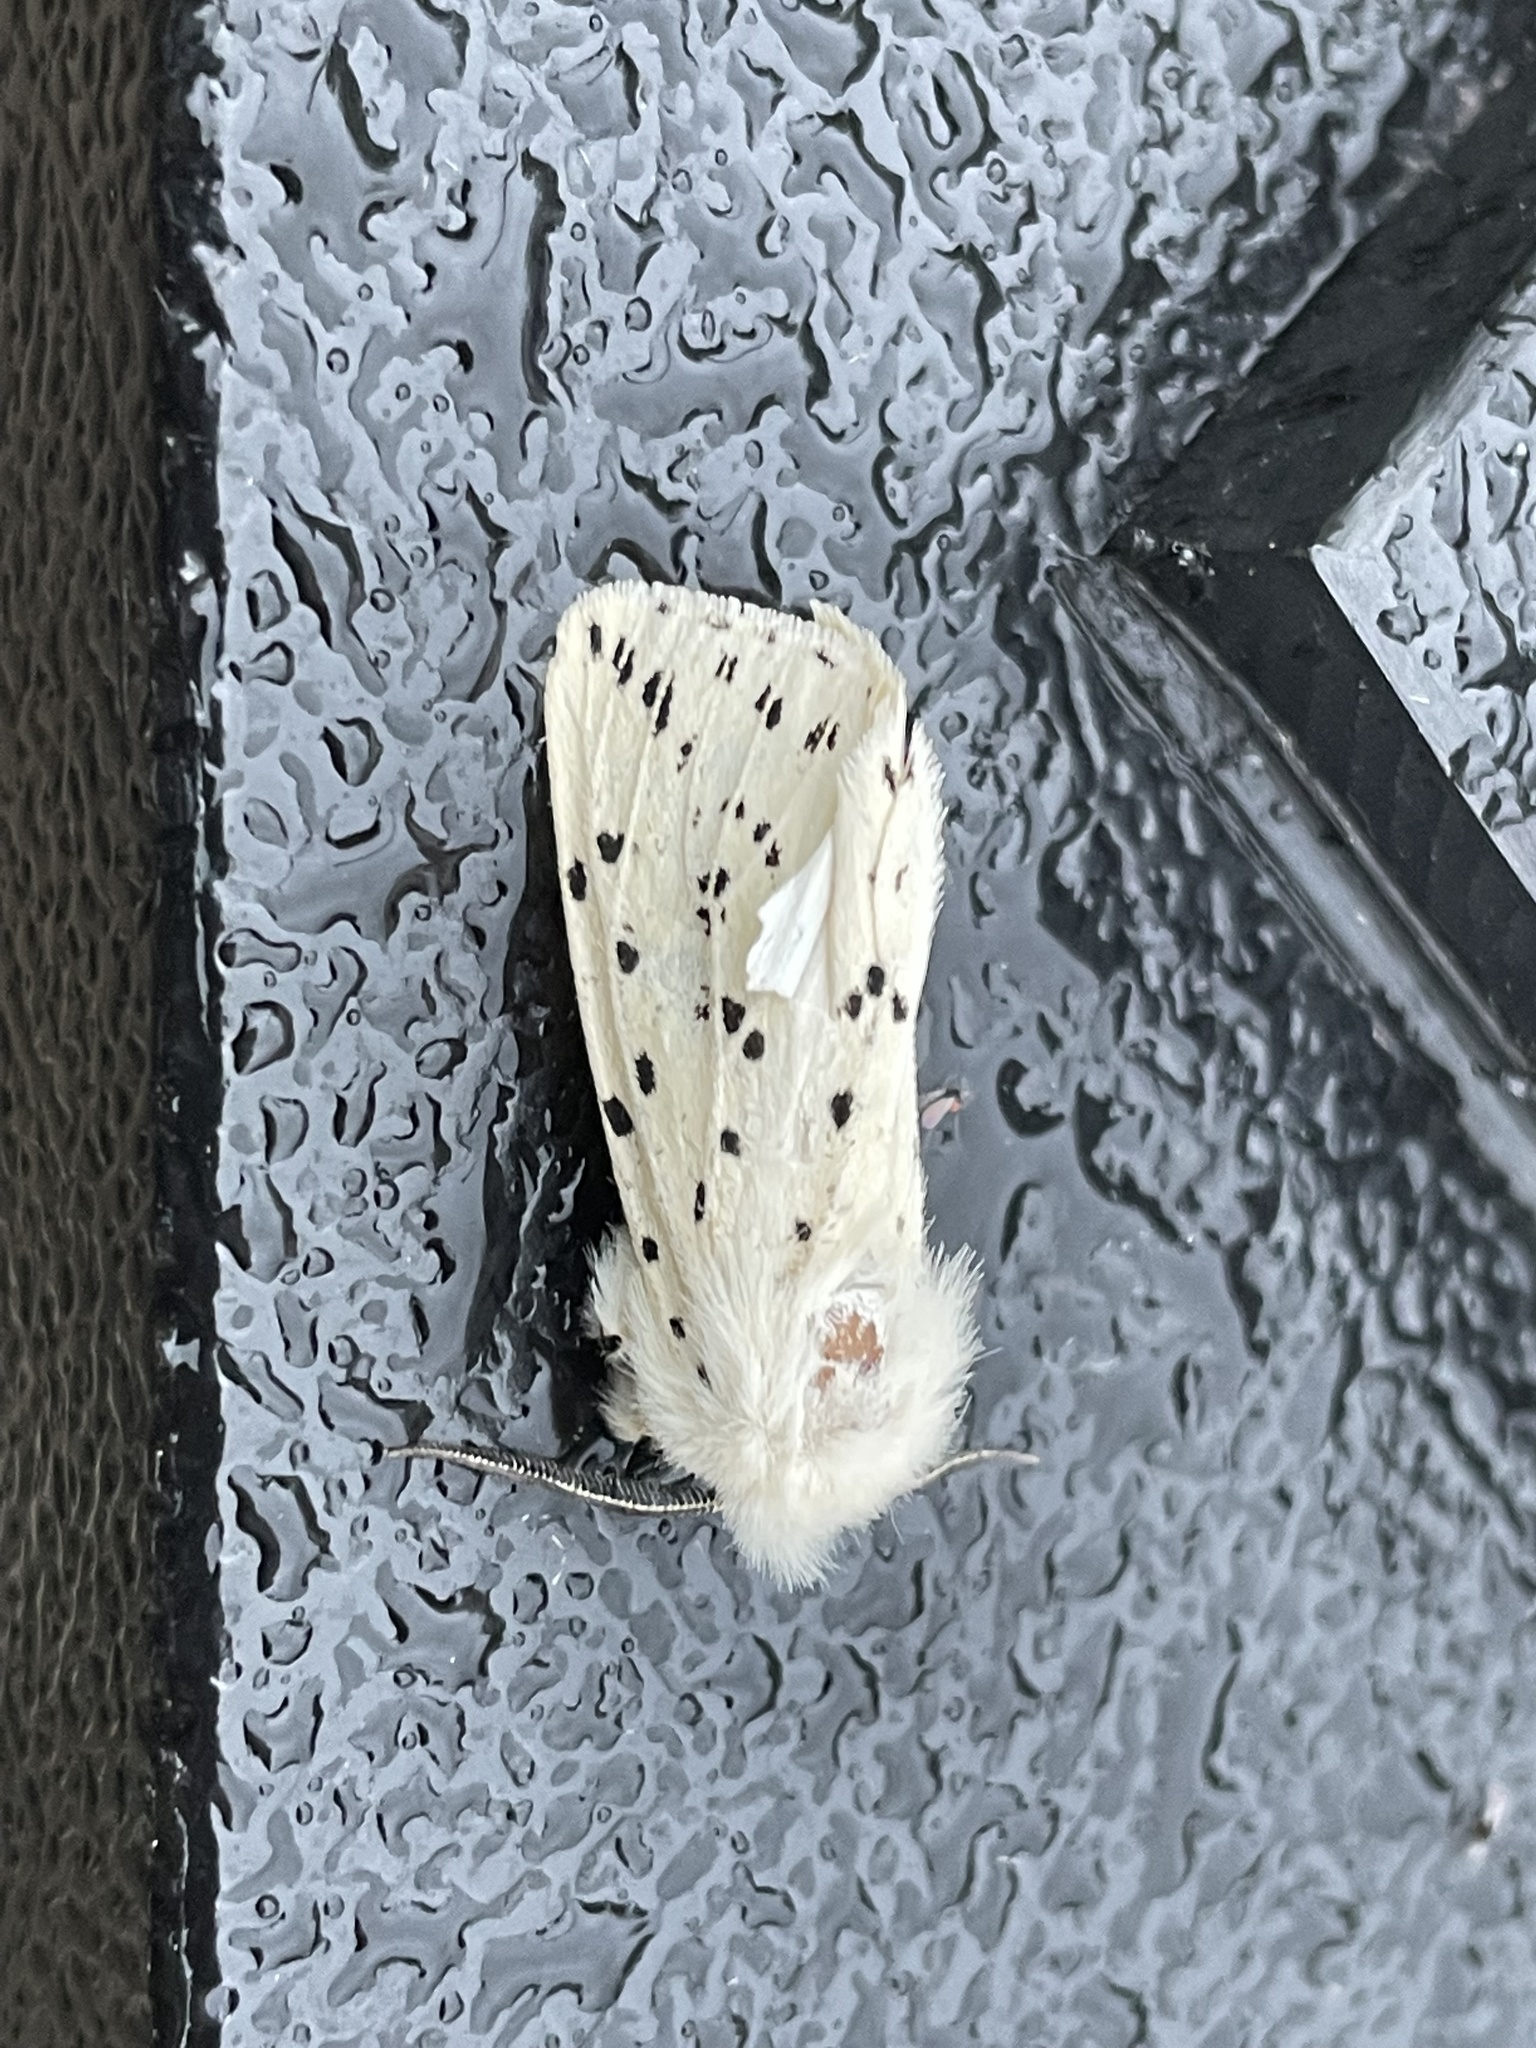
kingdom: Animalia
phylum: Arthropoda
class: Insecta
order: Lepidoptera
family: Erebidae
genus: Spilosoma
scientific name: Spilosoma lubricipeda
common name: White ermine
